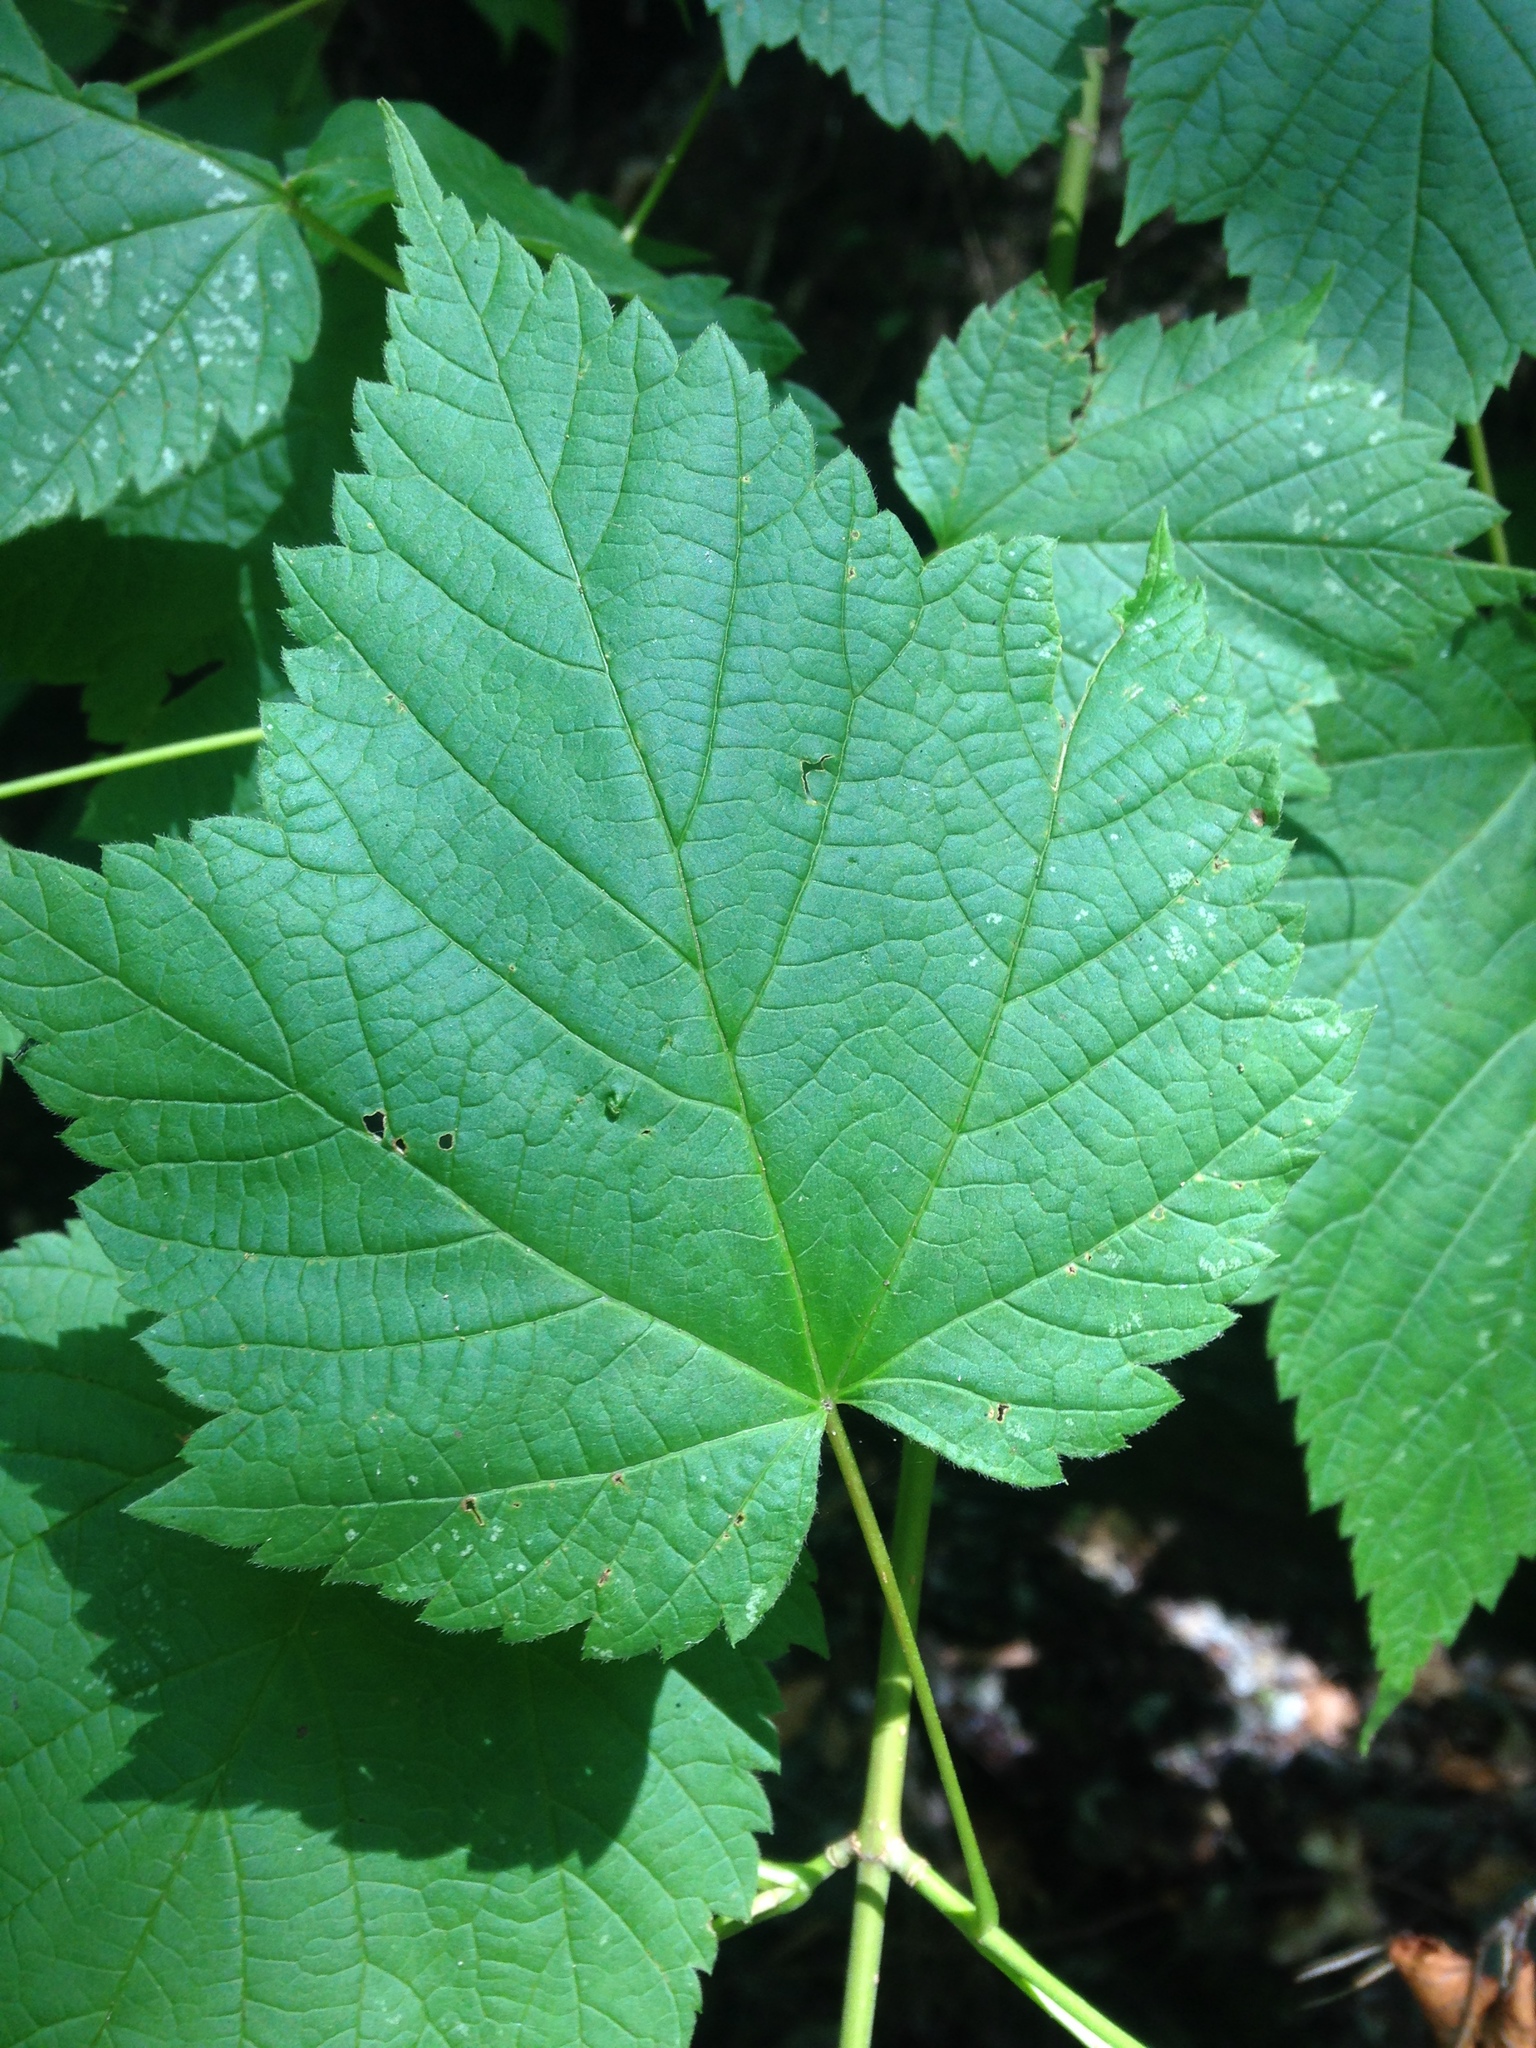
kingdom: Plantae
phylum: Tracheophyta
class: Magnoliopsida
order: Sapindales
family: Sapindaceae
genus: Acer
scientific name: Acer spicatum
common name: Mountain maple
